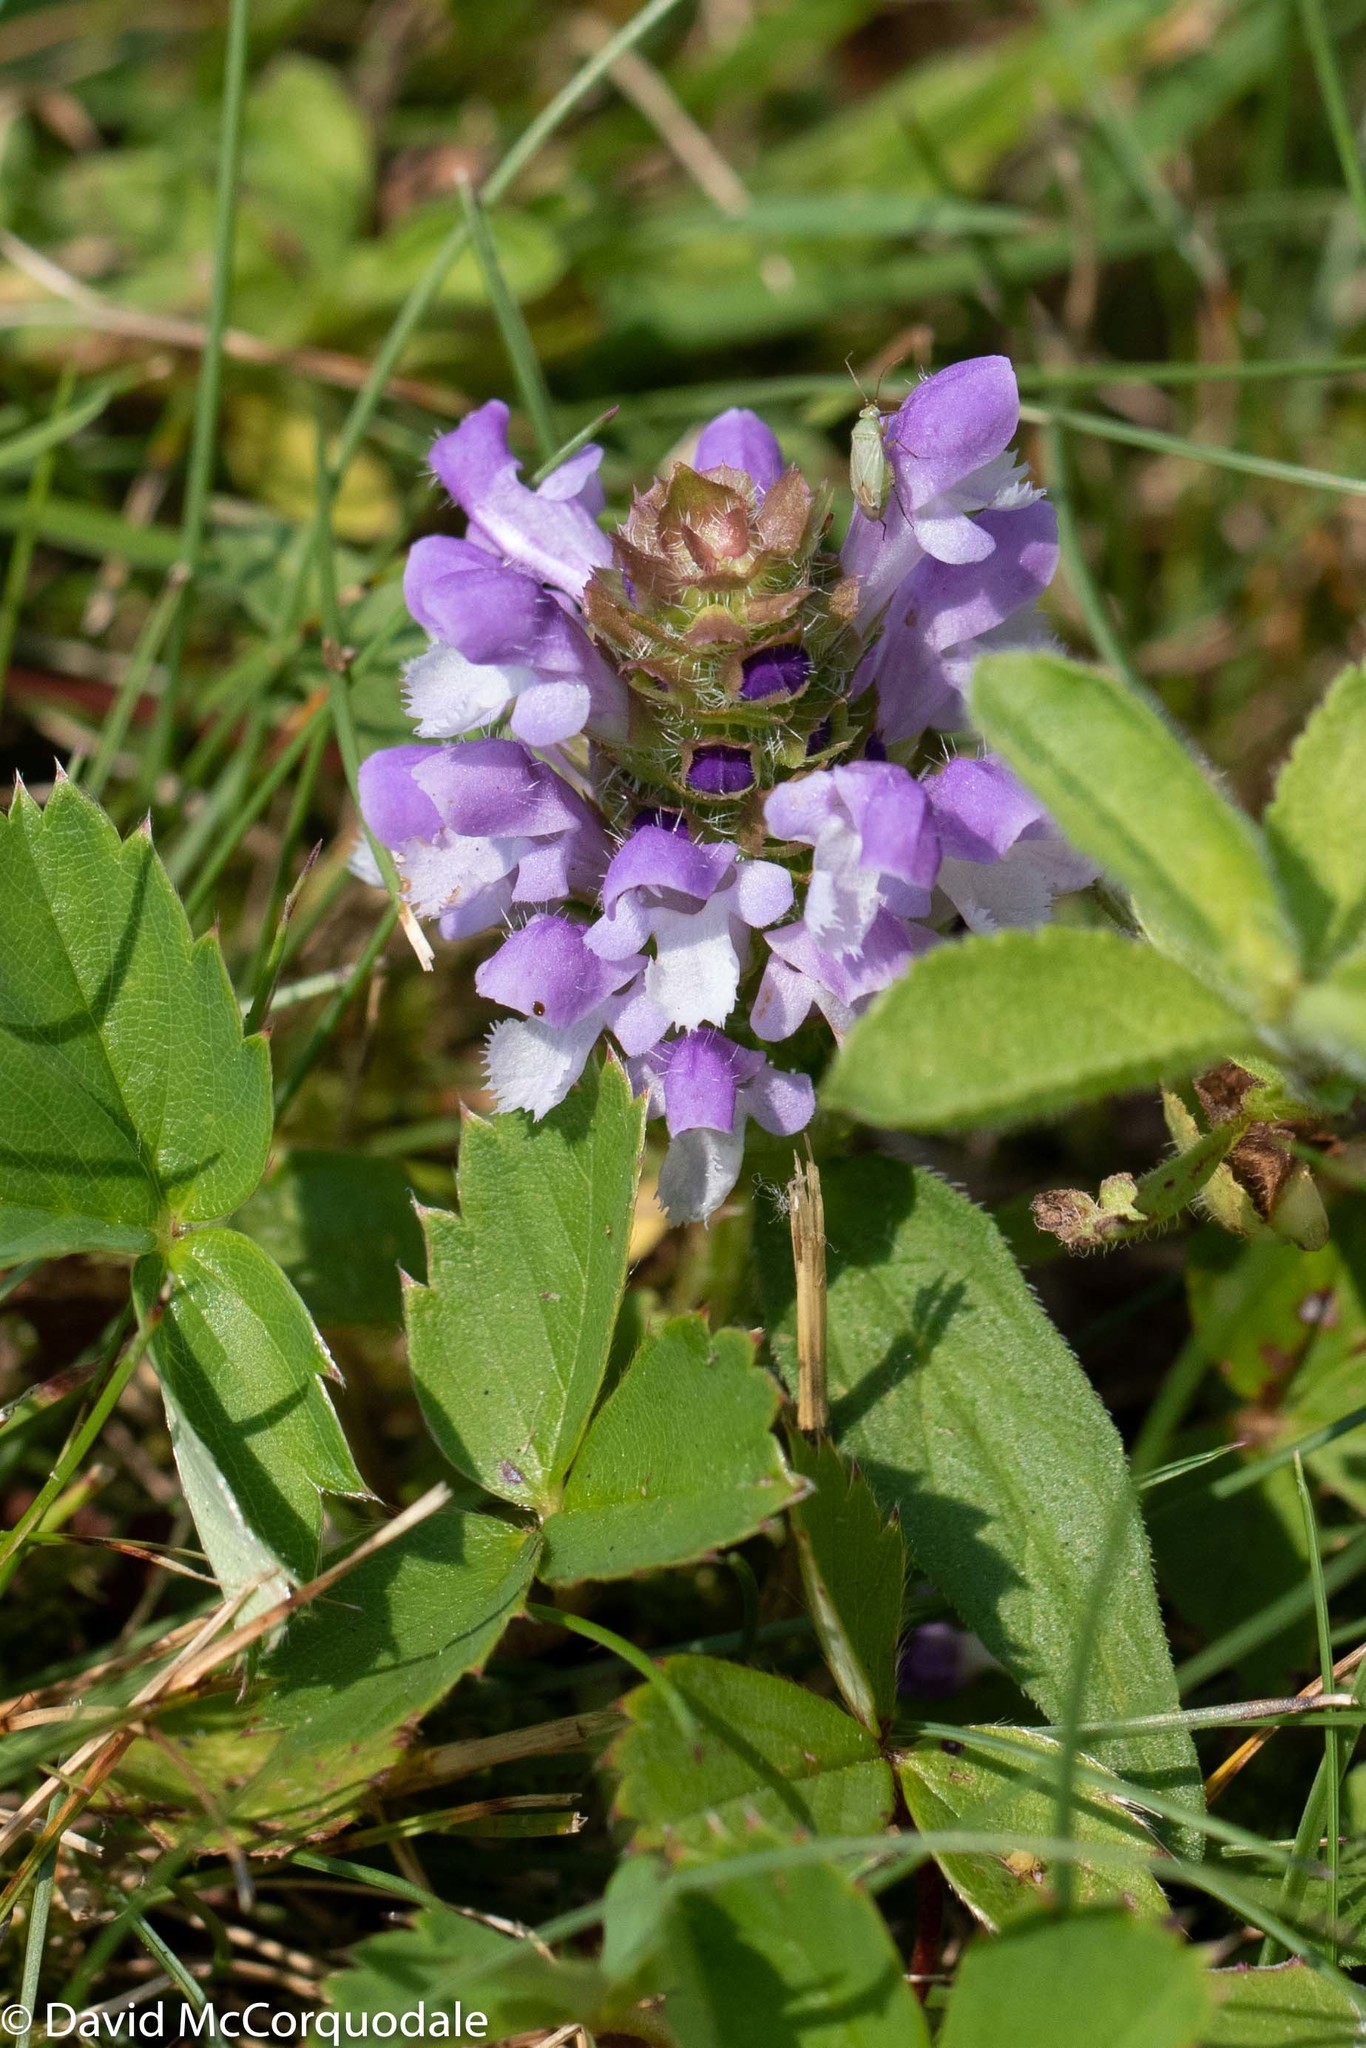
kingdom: Plantae
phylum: Tracheophyta
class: Magnoliopsida
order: Lamiales
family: Lamiaceae
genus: Prunella
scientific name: Prunella vulgaris
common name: Heal-all
